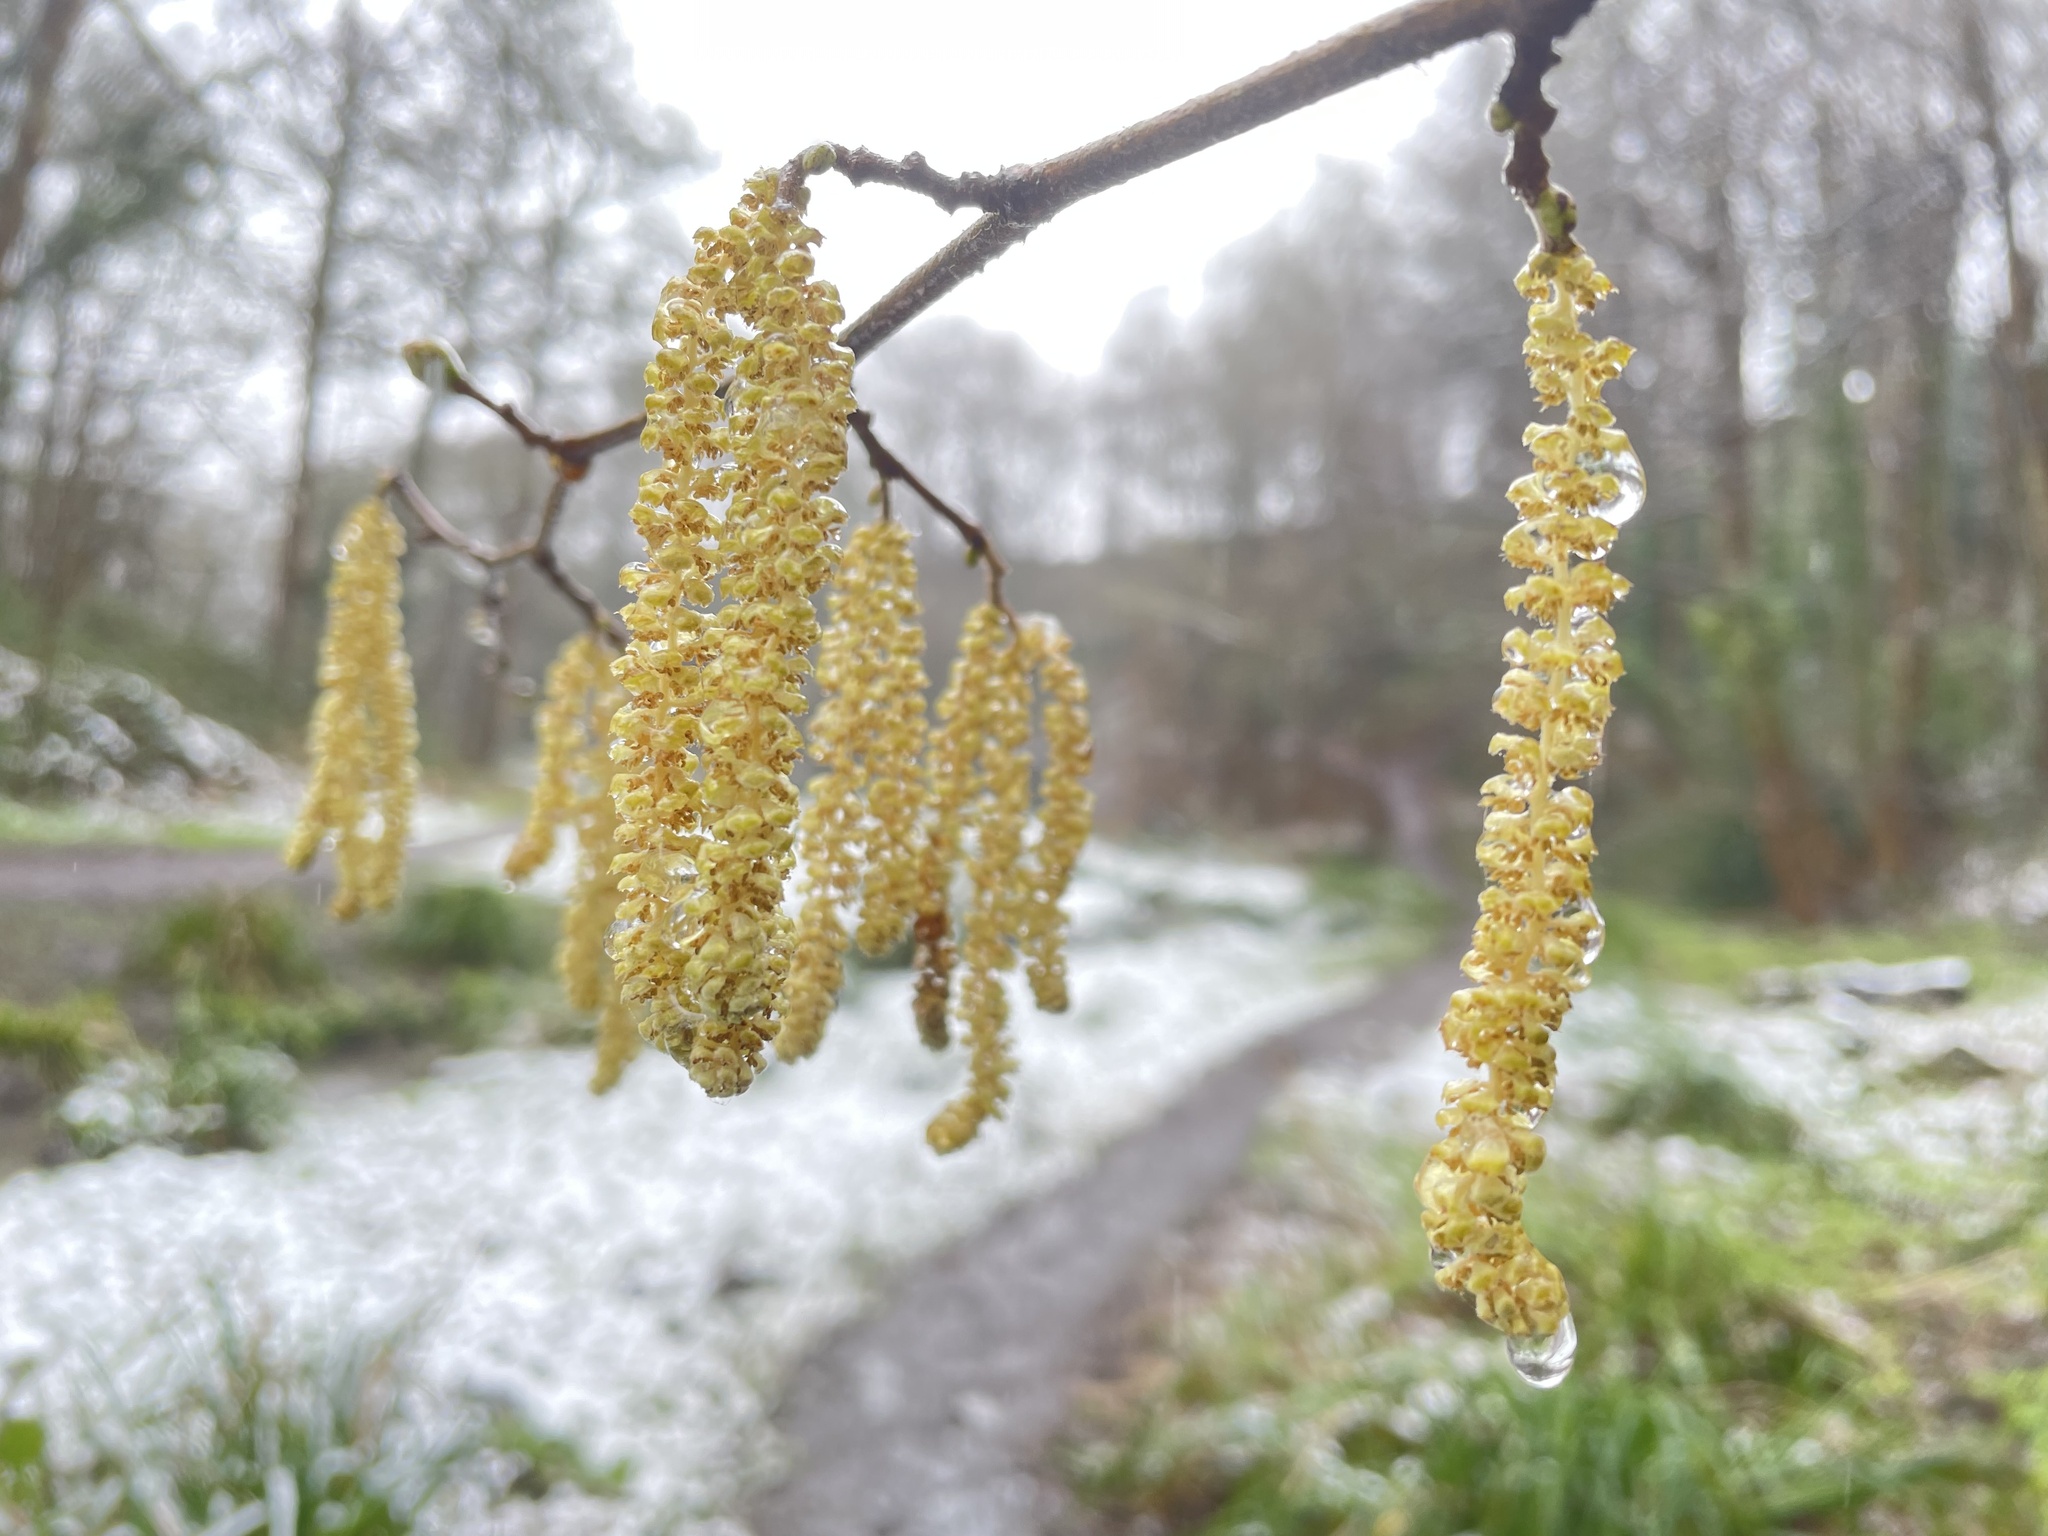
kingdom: Plantae
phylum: Tracheophyta
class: Magnoliopsida
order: Fagales
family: Betulaceae
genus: Corylus
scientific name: Corylus avellana
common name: European hazel
